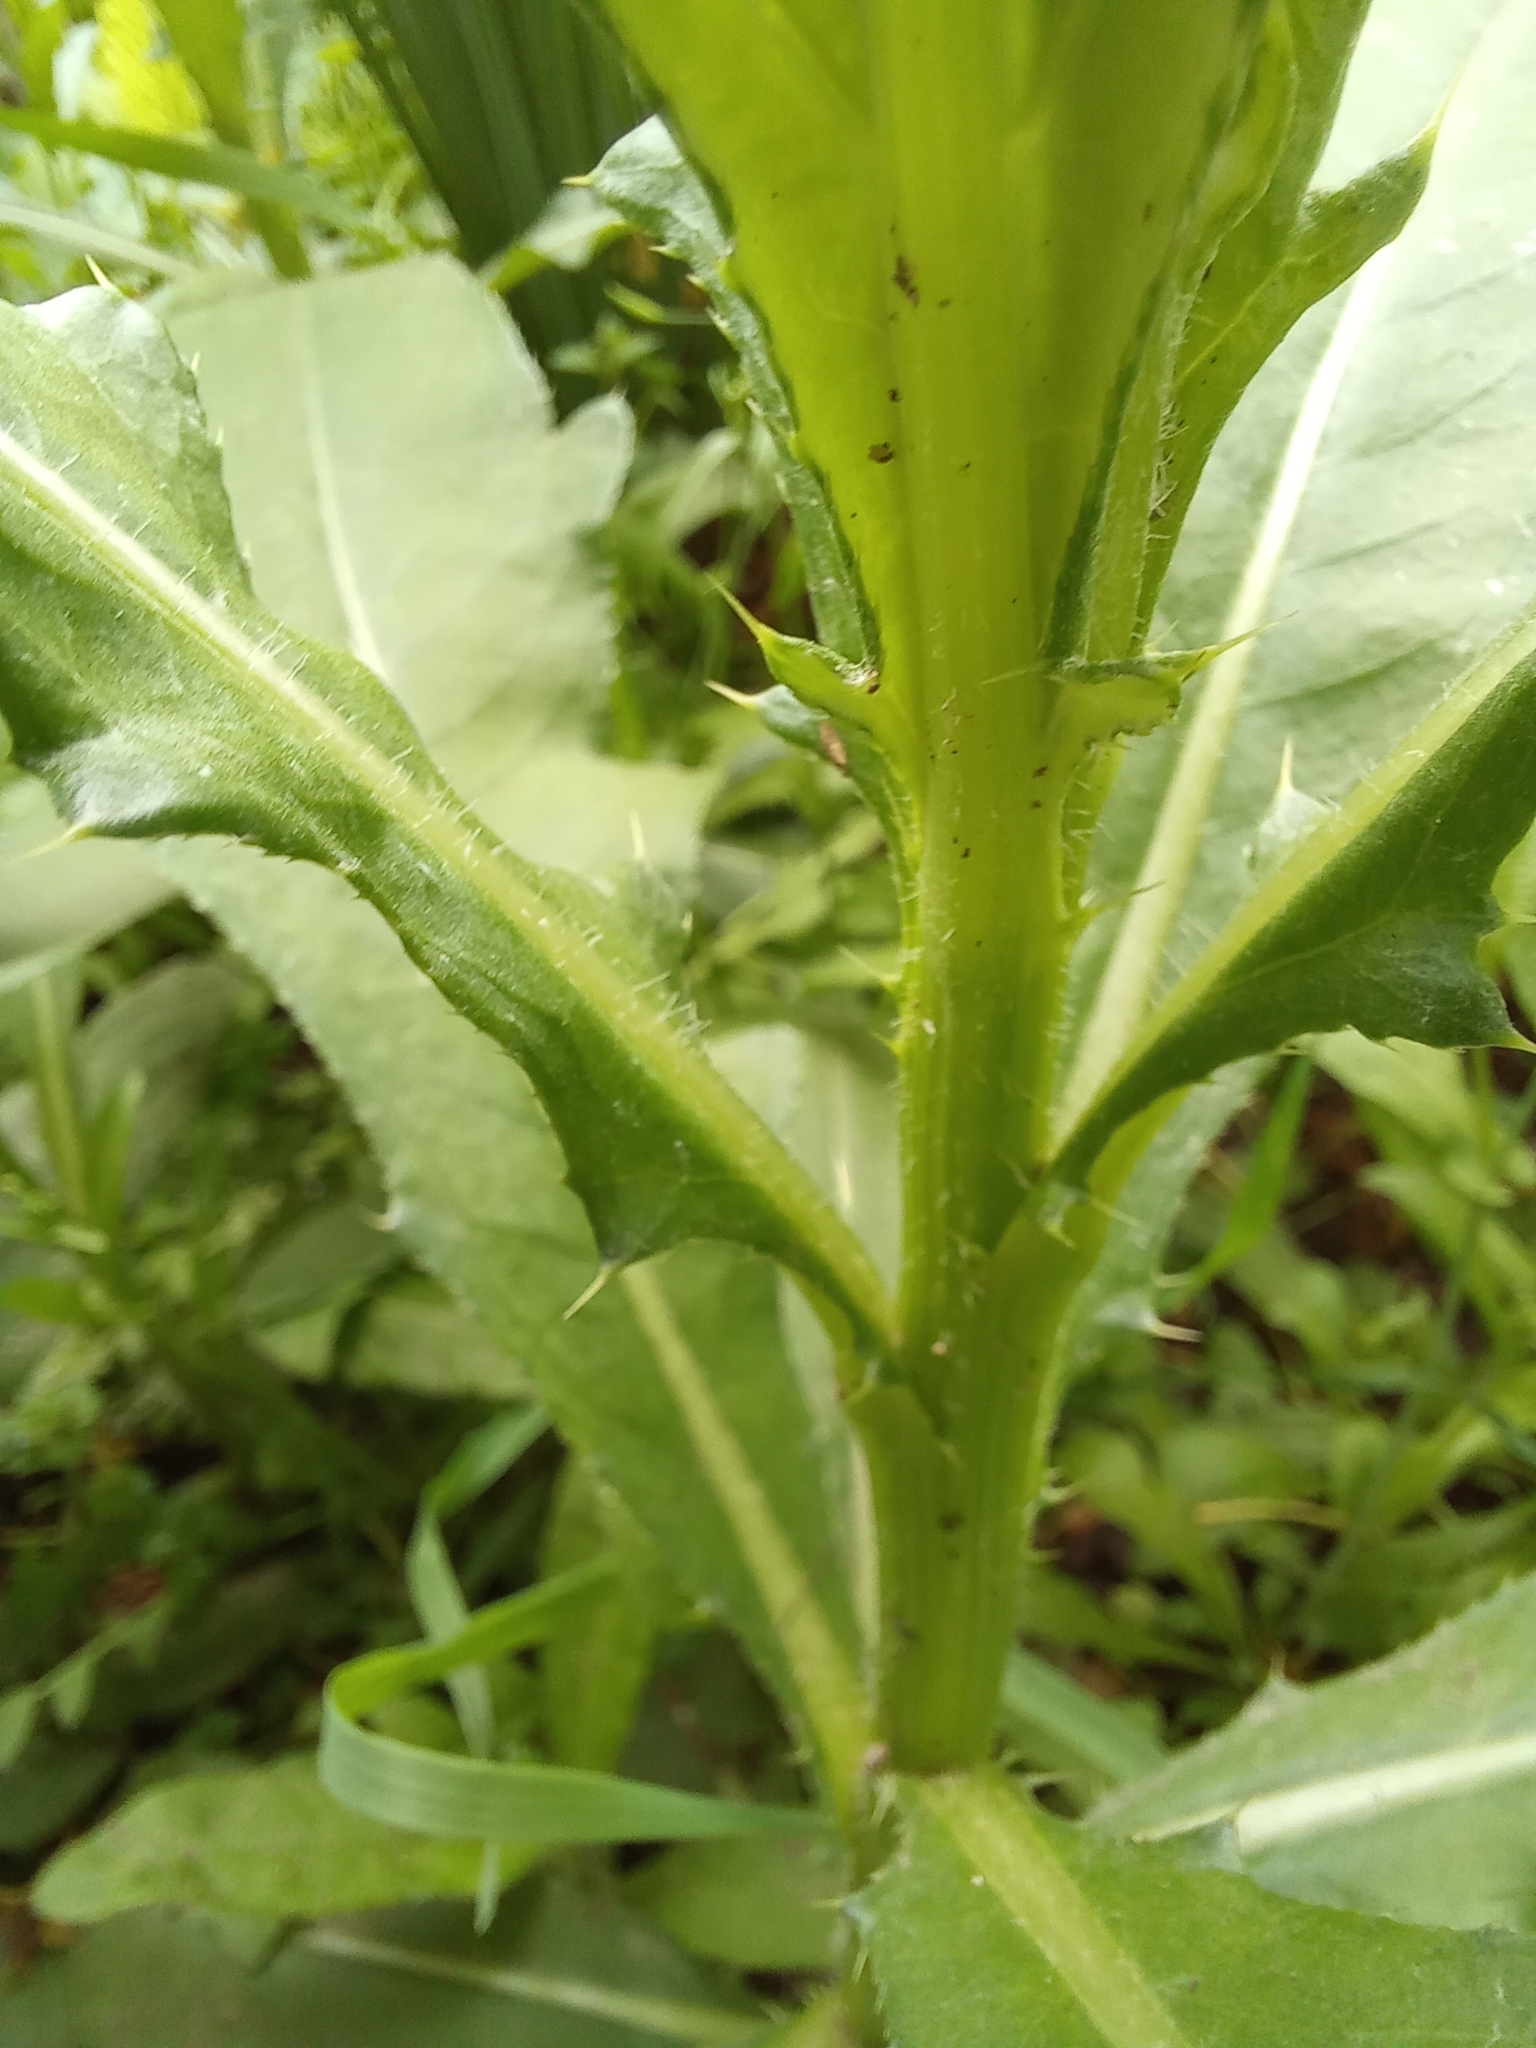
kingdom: Plantae
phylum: Tracheophyta
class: Magnoliopsida
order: Asterales
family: Asteraceae
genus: Cirsium
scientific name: Cirsium arvense
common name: Creeping thistle
